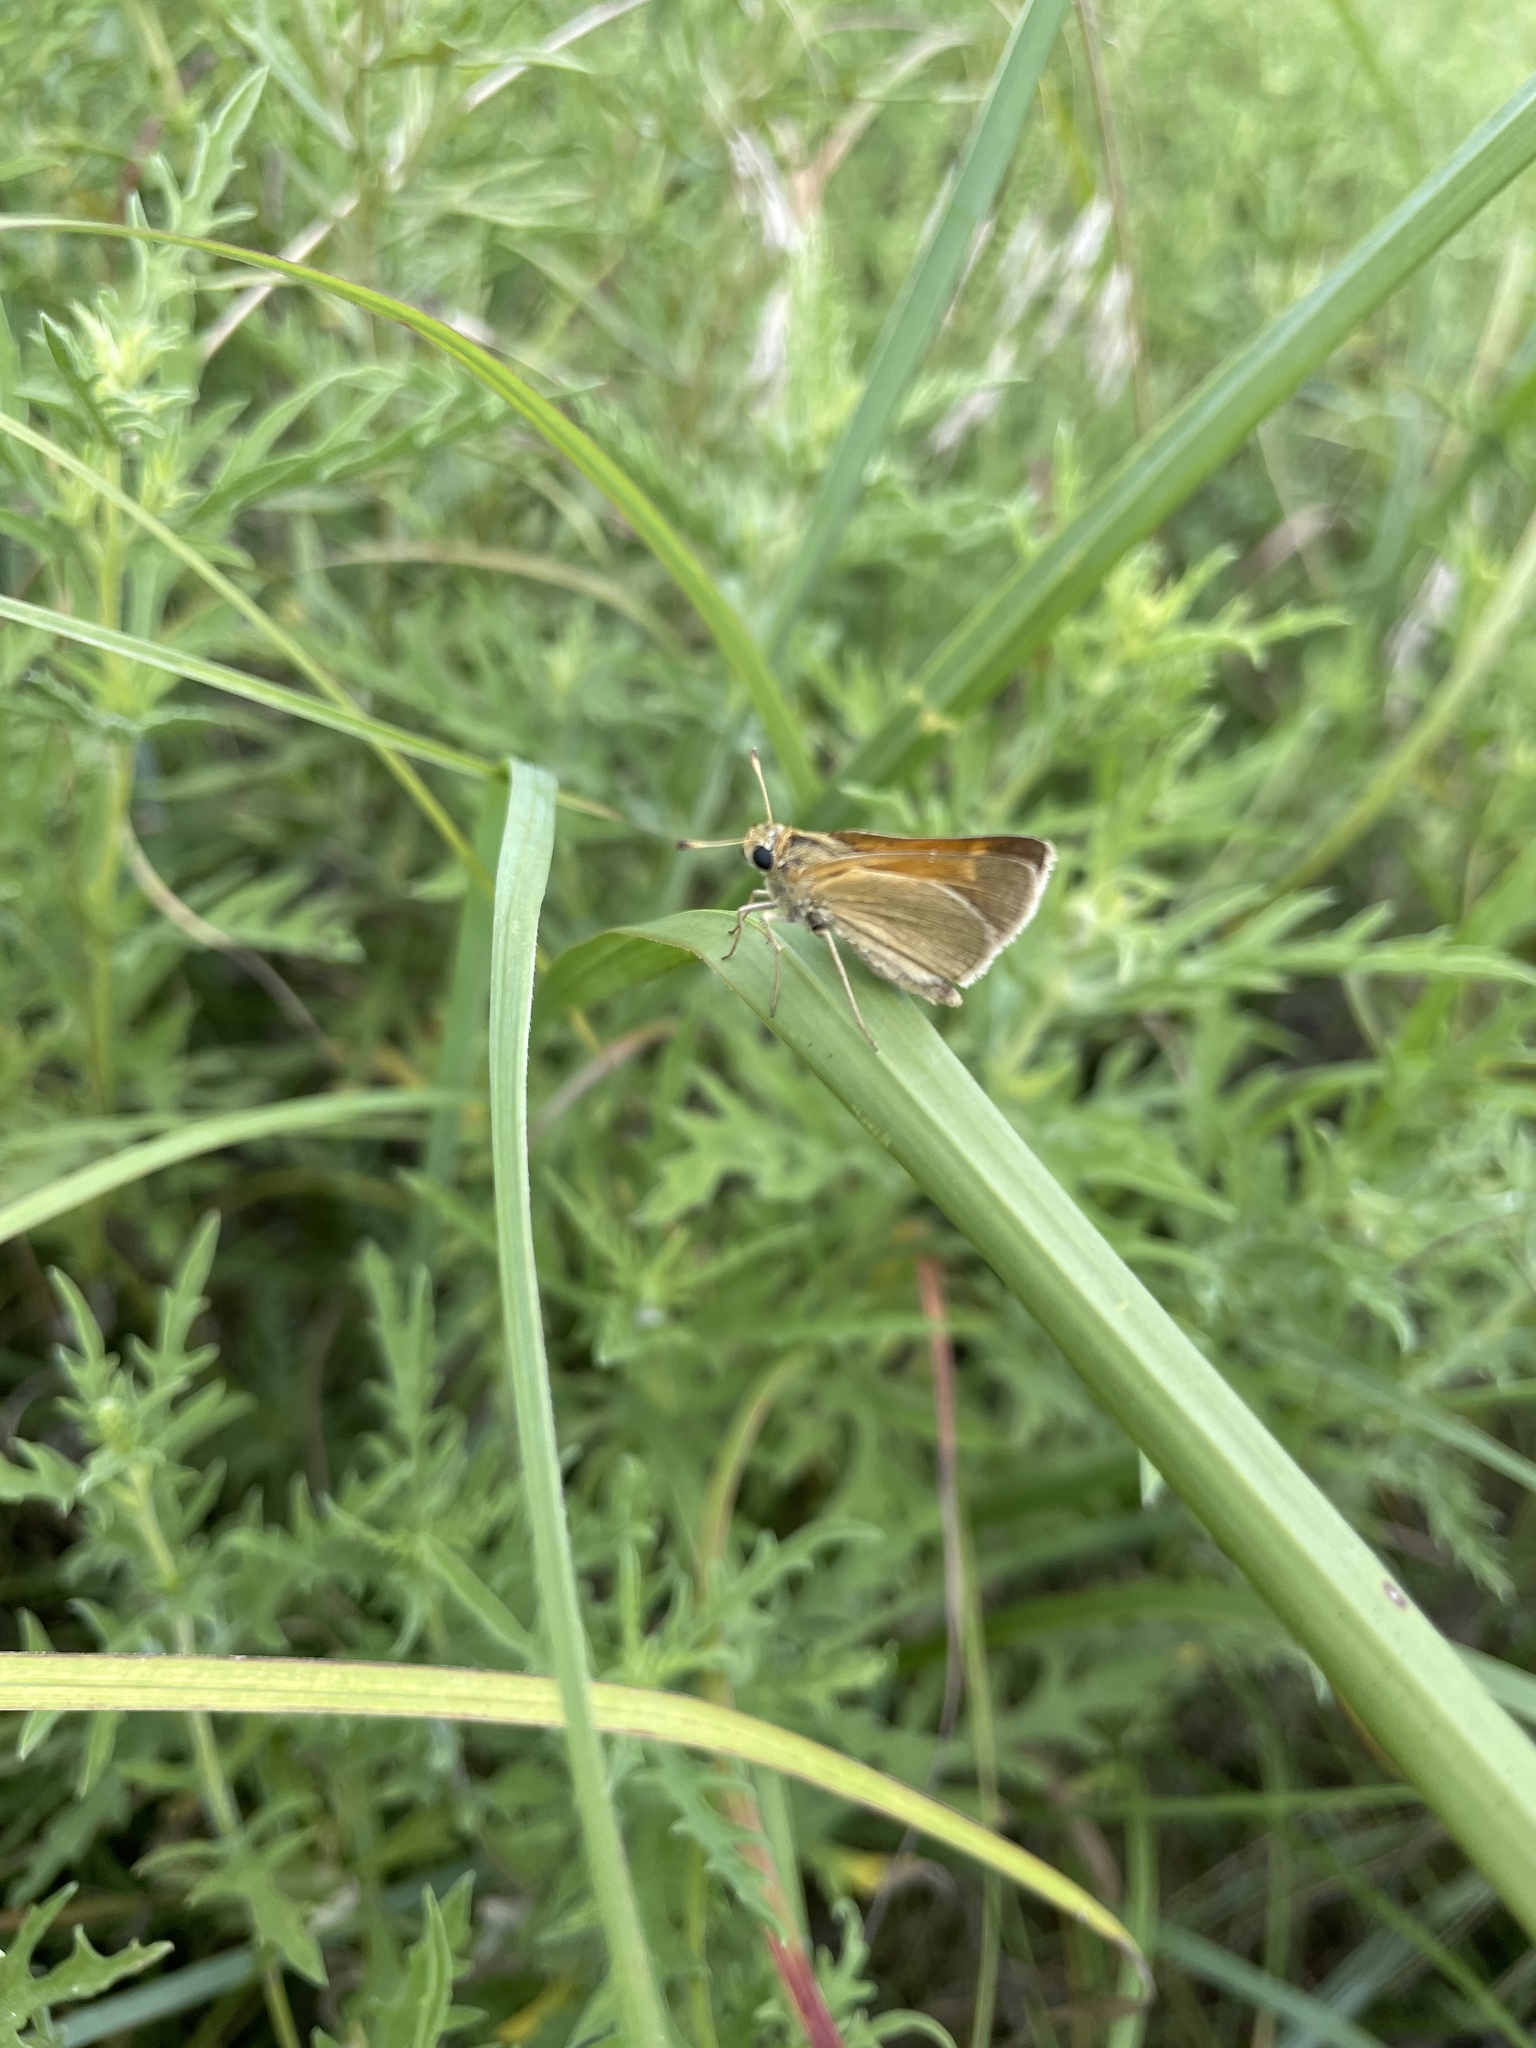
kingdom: Animalia
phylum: Arthropoda
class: Insecta
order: Lepidoptera
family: Hesperiidae
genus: Polites
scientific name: Polites themistocles
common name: Tawny-edged skipper
